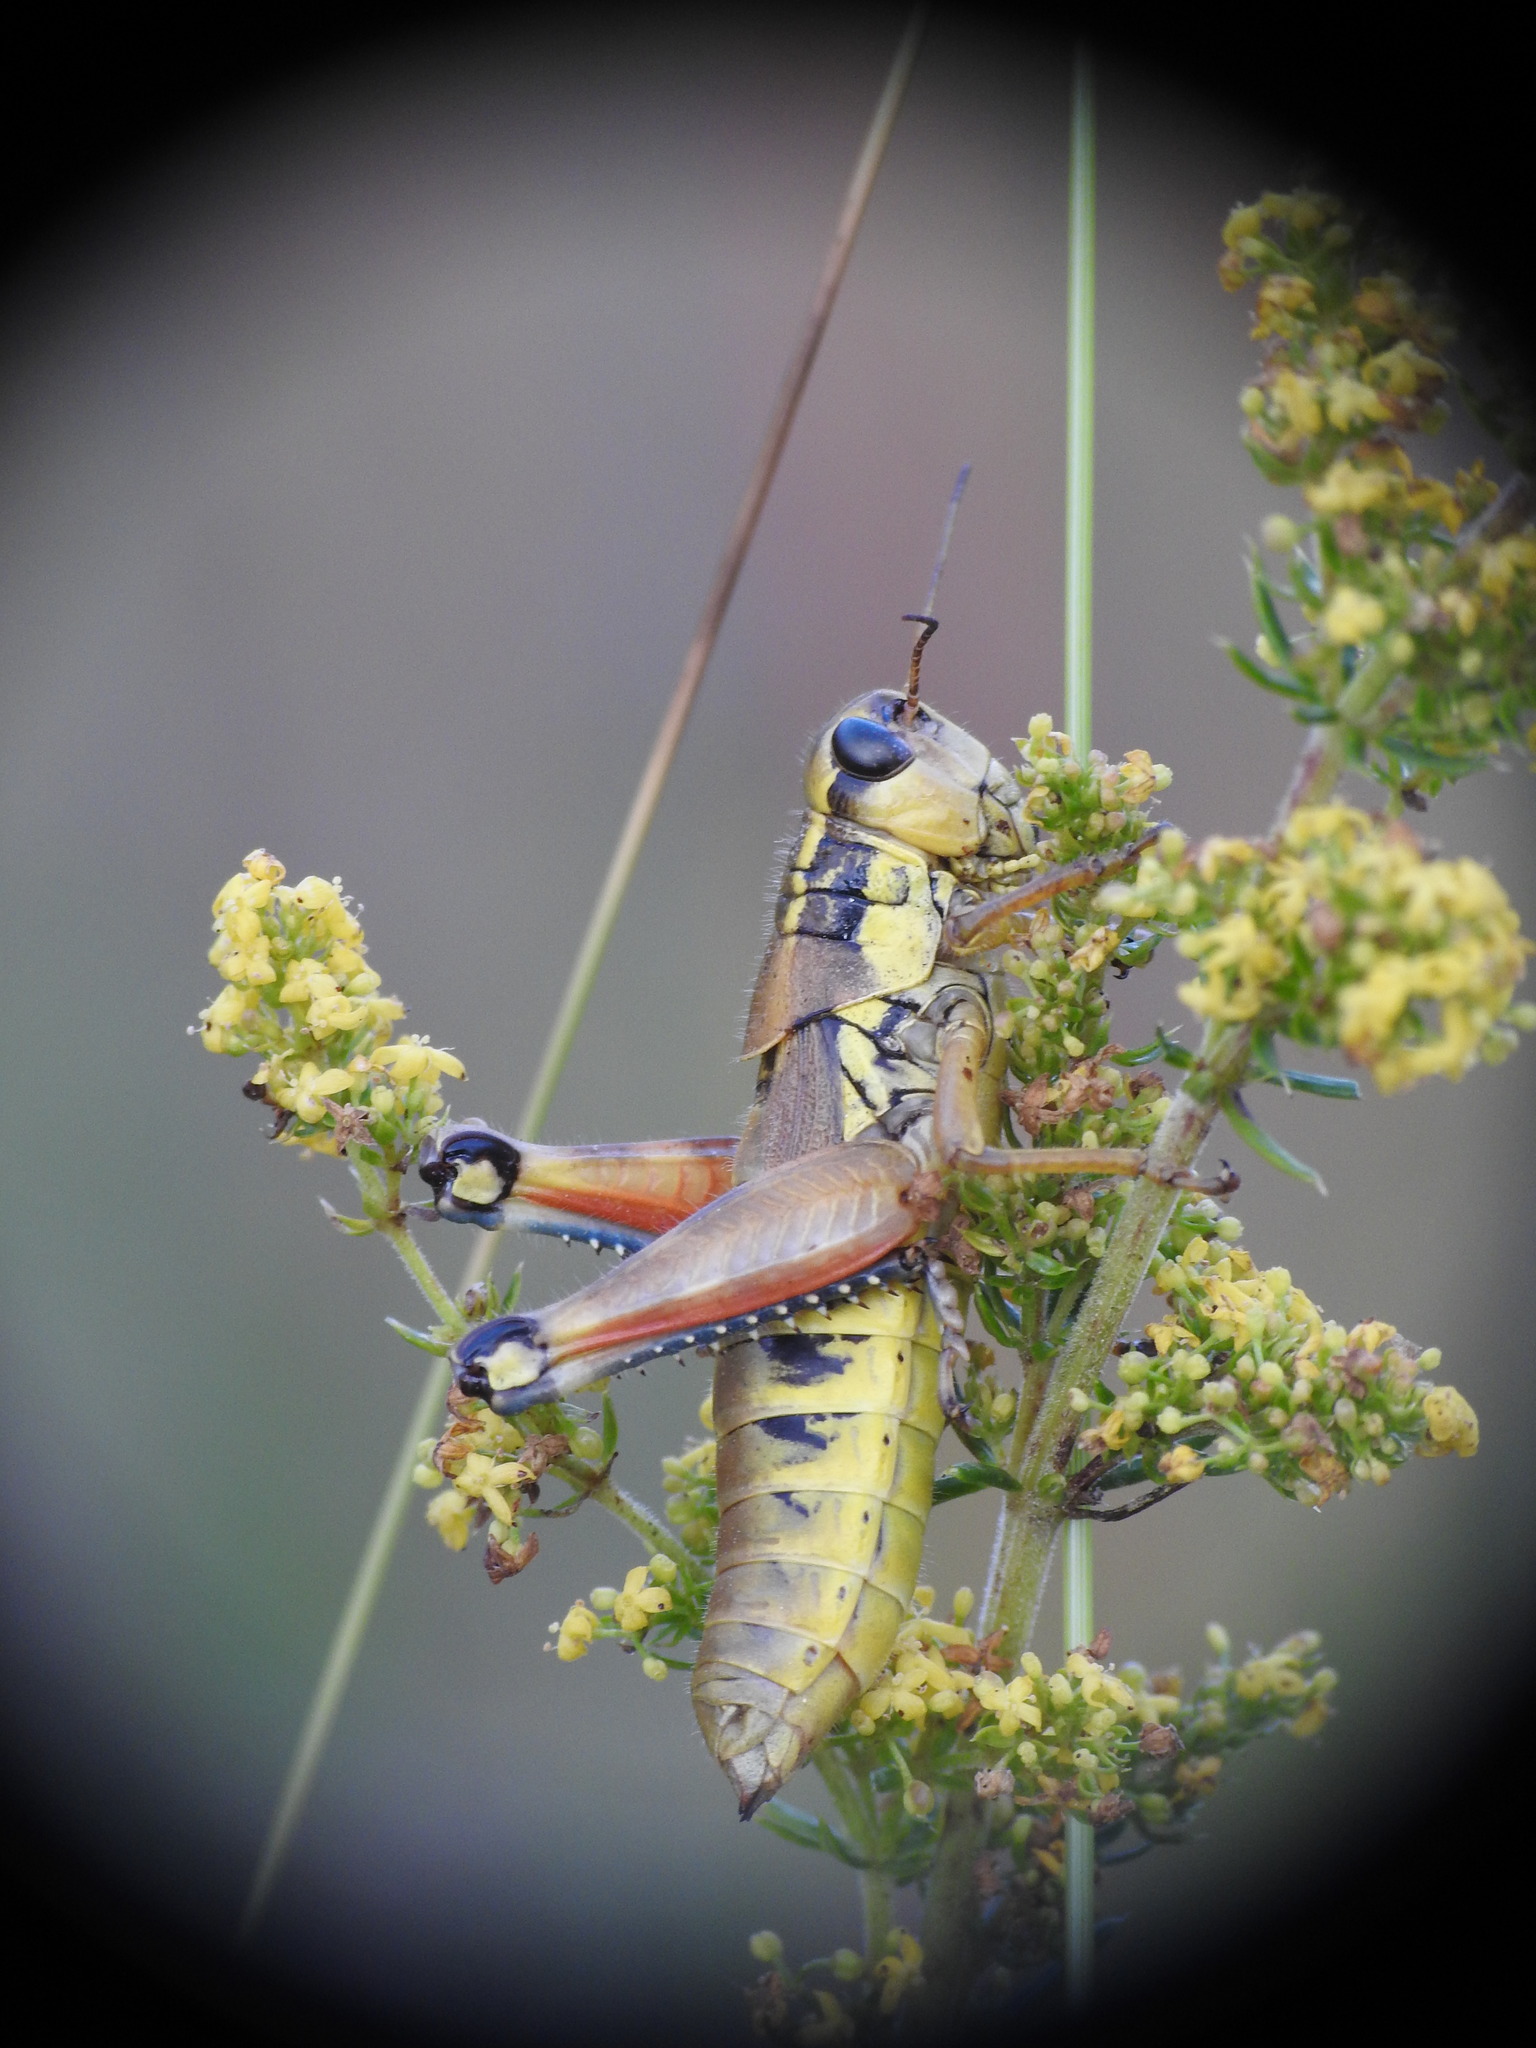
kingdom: Animalia
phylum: Arthropoda
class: Insecta
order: Orthoptera
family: Acrididae
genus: Podisma
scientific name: Podisma pedestris
